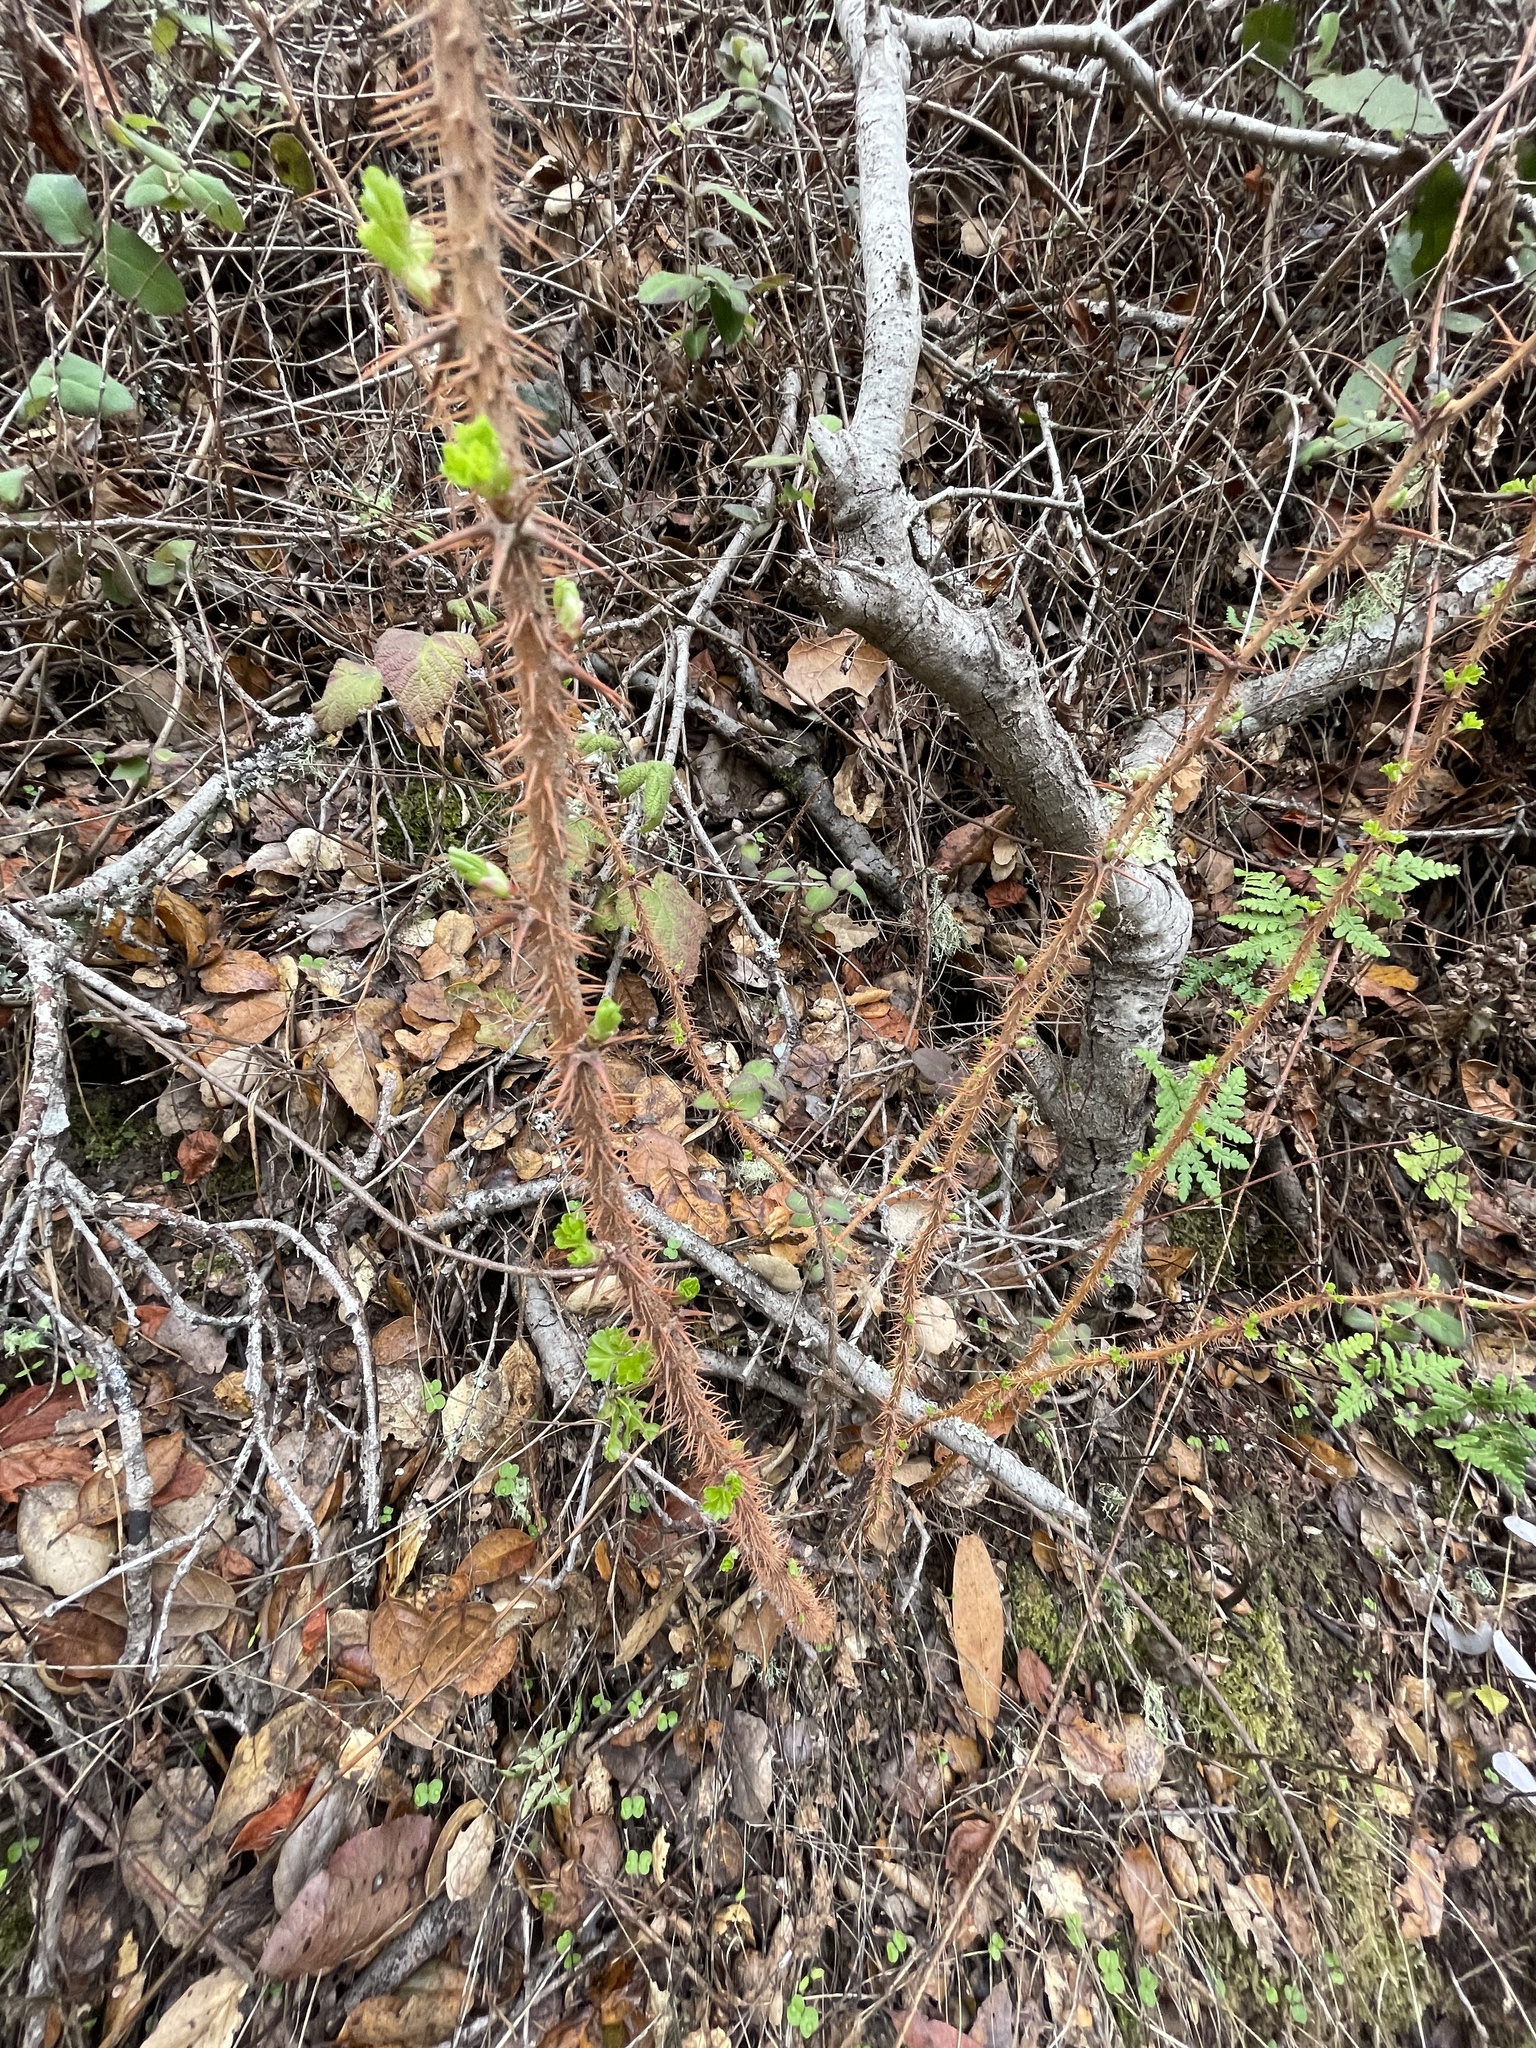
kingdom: Plantae
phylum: Tracheophyta
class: Magnoliopsida
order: Saxifragales
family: Grossulariaceae
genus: Ribes
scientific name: Ribes menziesii
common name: Canyon gooseberry
